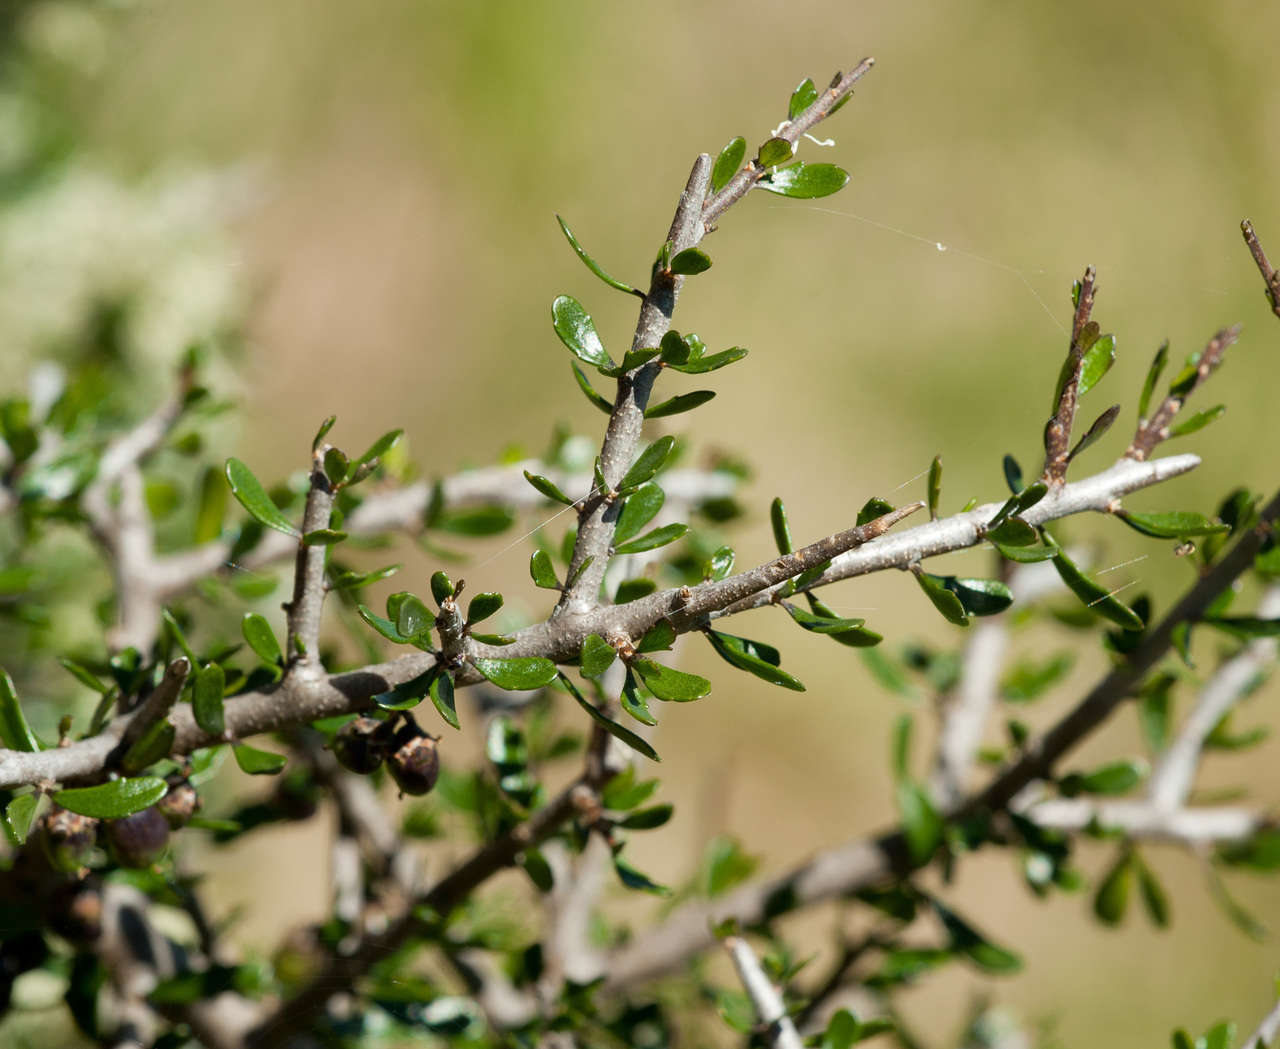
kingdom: Plantae
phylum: Tracheophyta
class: Magnoliopsida
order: Malpighiales
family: Violaceae
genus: Melicytus
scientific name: Melicytus angustifolius
